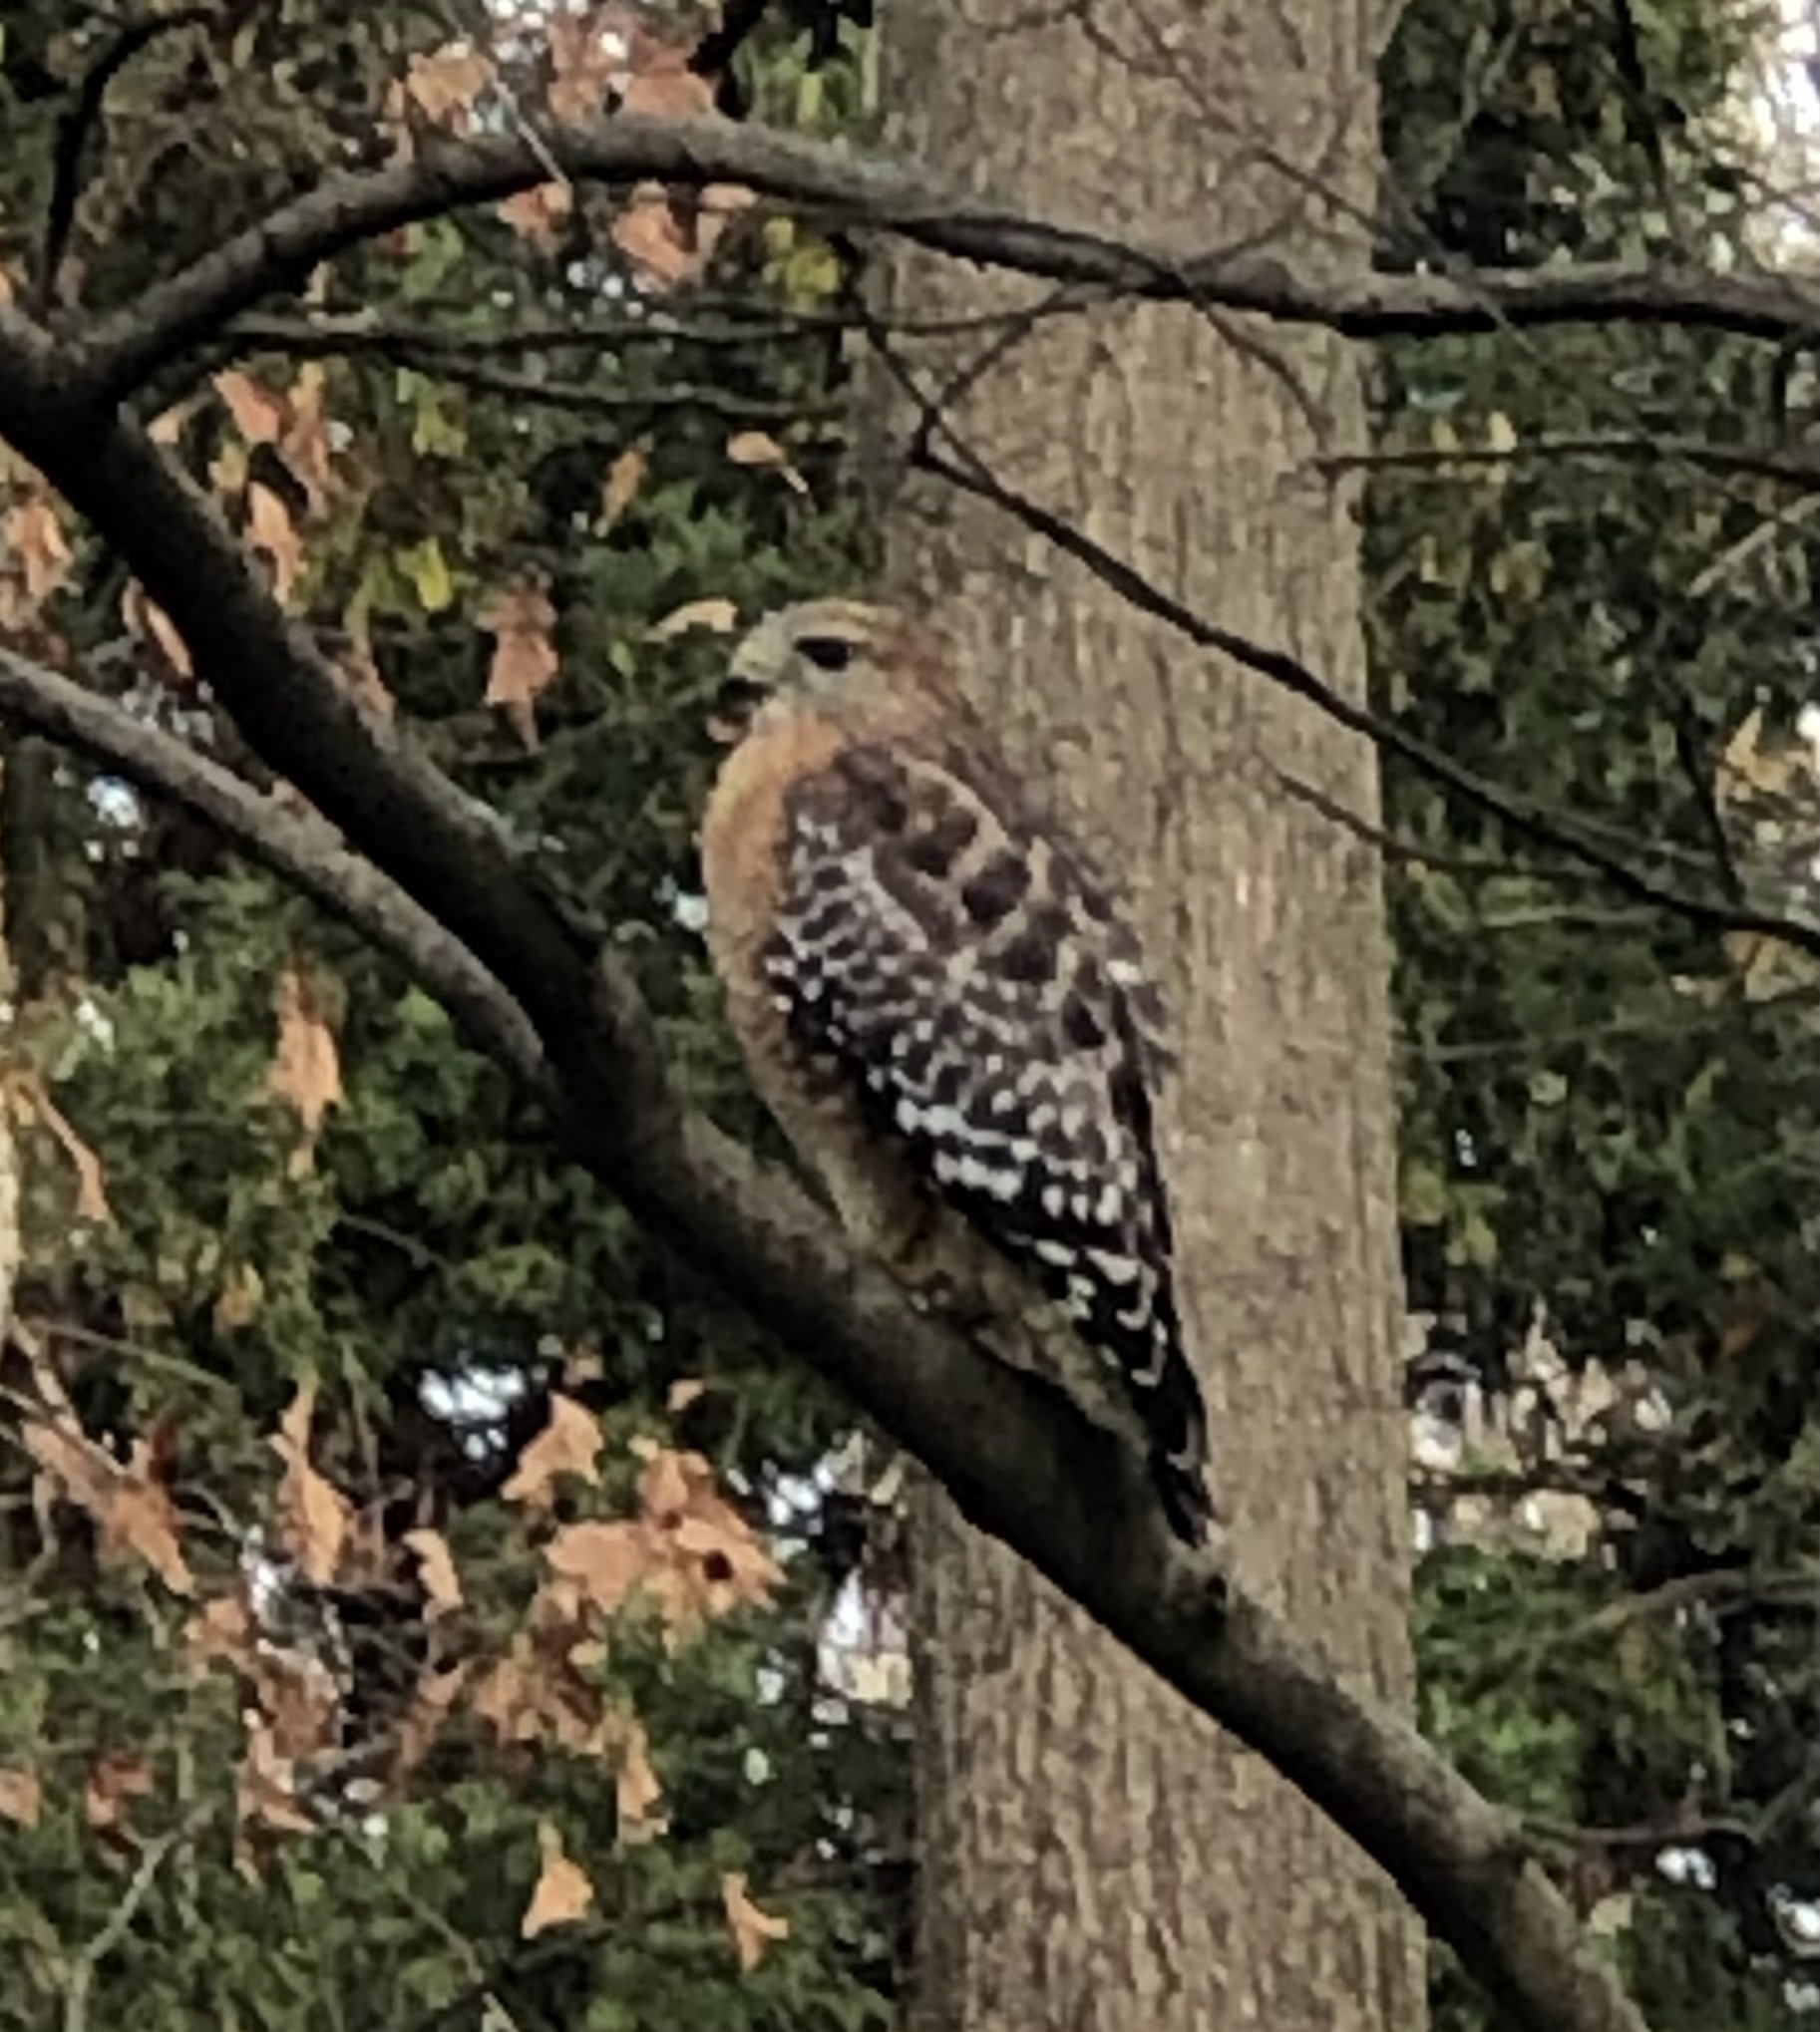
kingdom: Animalia
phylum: Chordata
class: Aves
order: Accipitriformes
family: Accipitridae
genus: Buteo
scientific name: Buteo lineatus
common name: Red-shouldered hawk
